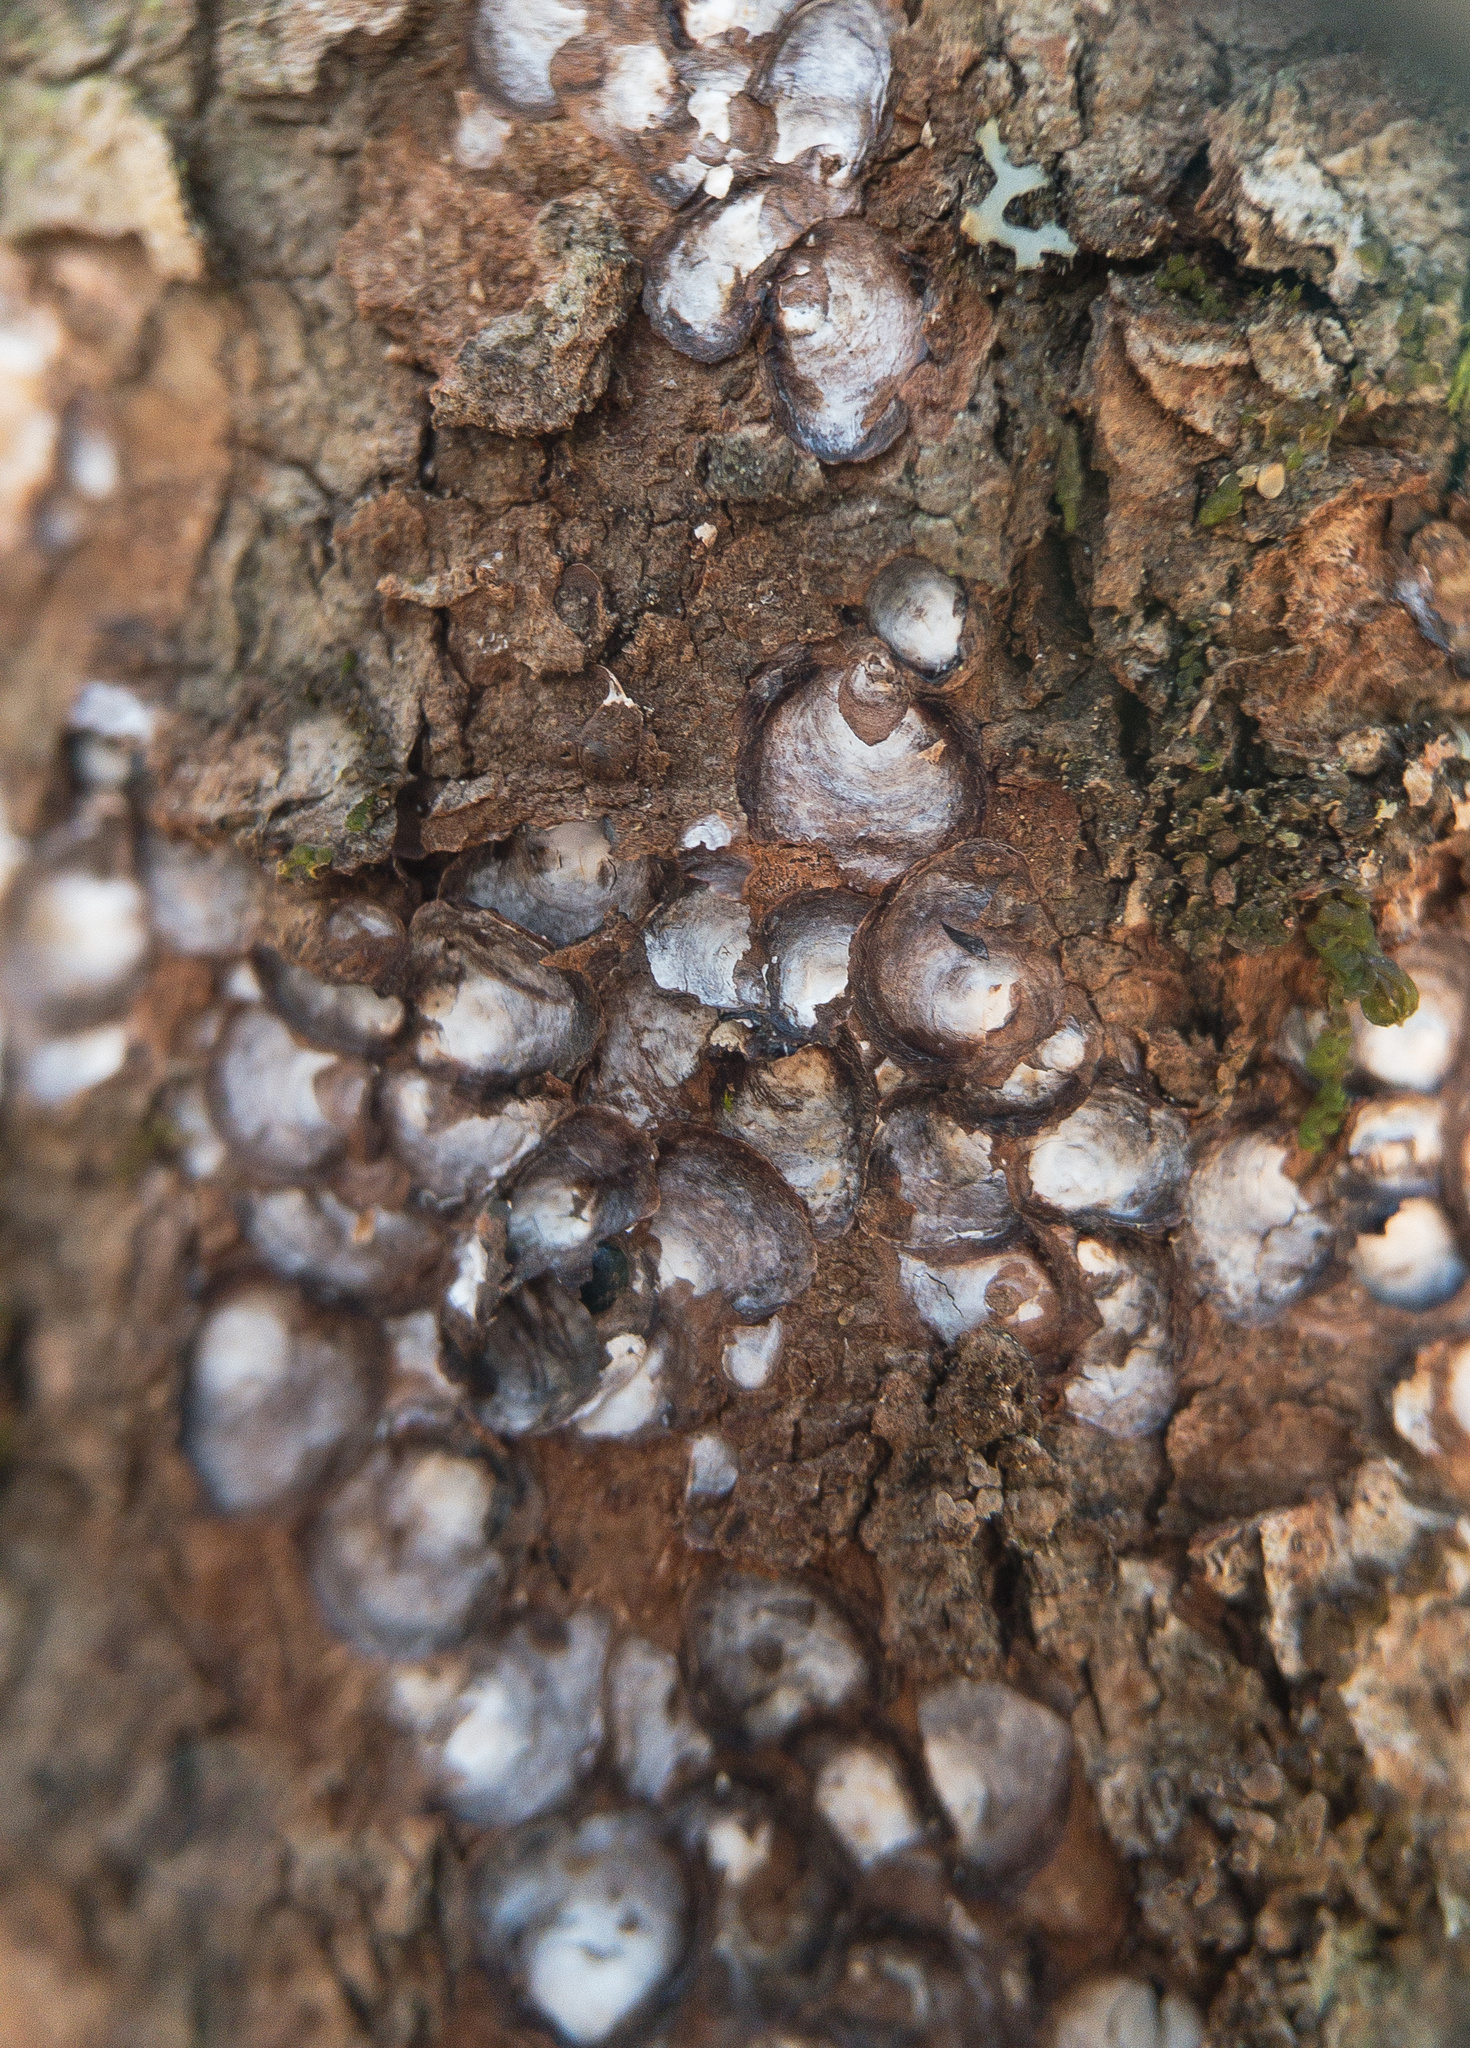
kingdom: Animalia
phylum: Arthropoda
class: Insecta
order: Hemiptera
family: Diaspididae
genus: Melanaspis
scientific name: Melanaspis tenebricosa
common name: Gloomy scale
